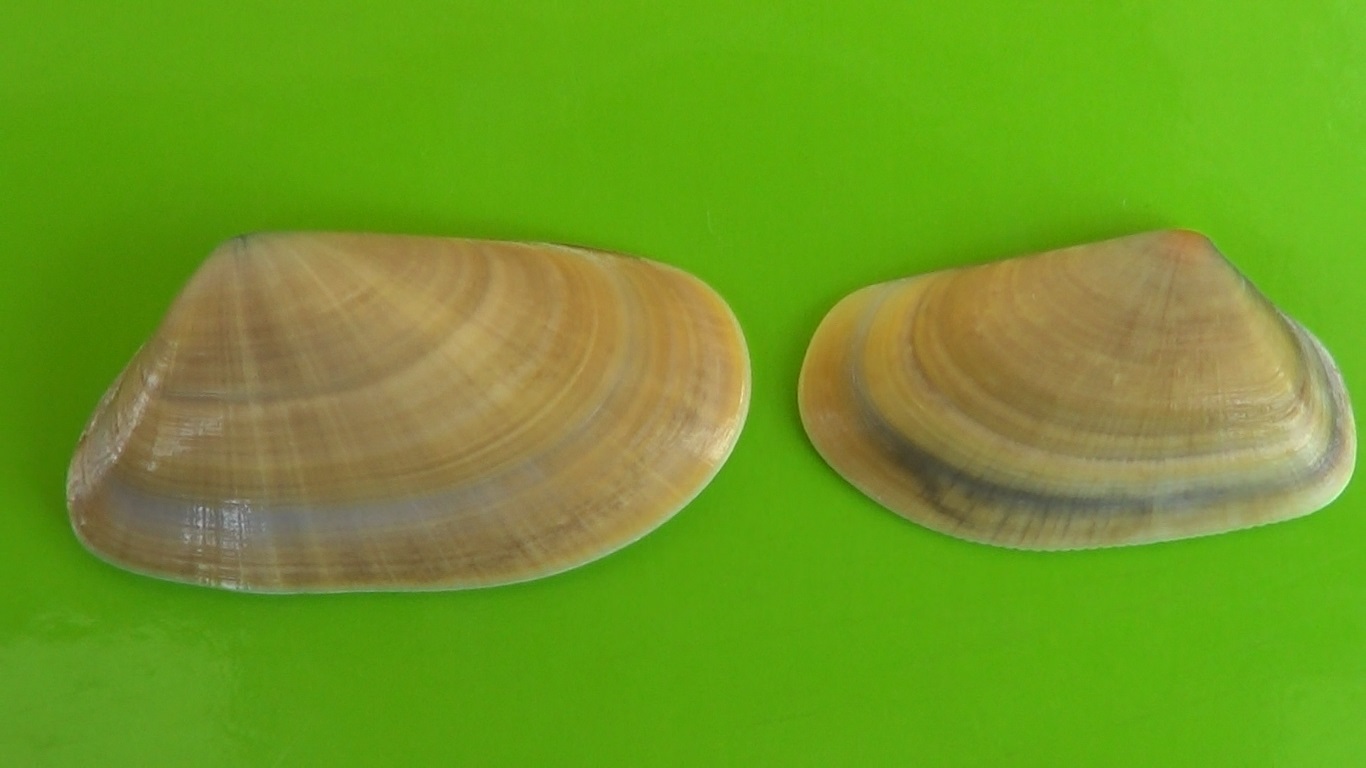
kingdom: Animalia
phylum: Mollusca
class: Bivalvia
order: Cardiida
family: Donacidae
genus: Donax
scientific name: Donax trunculus
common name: Truncate donax
